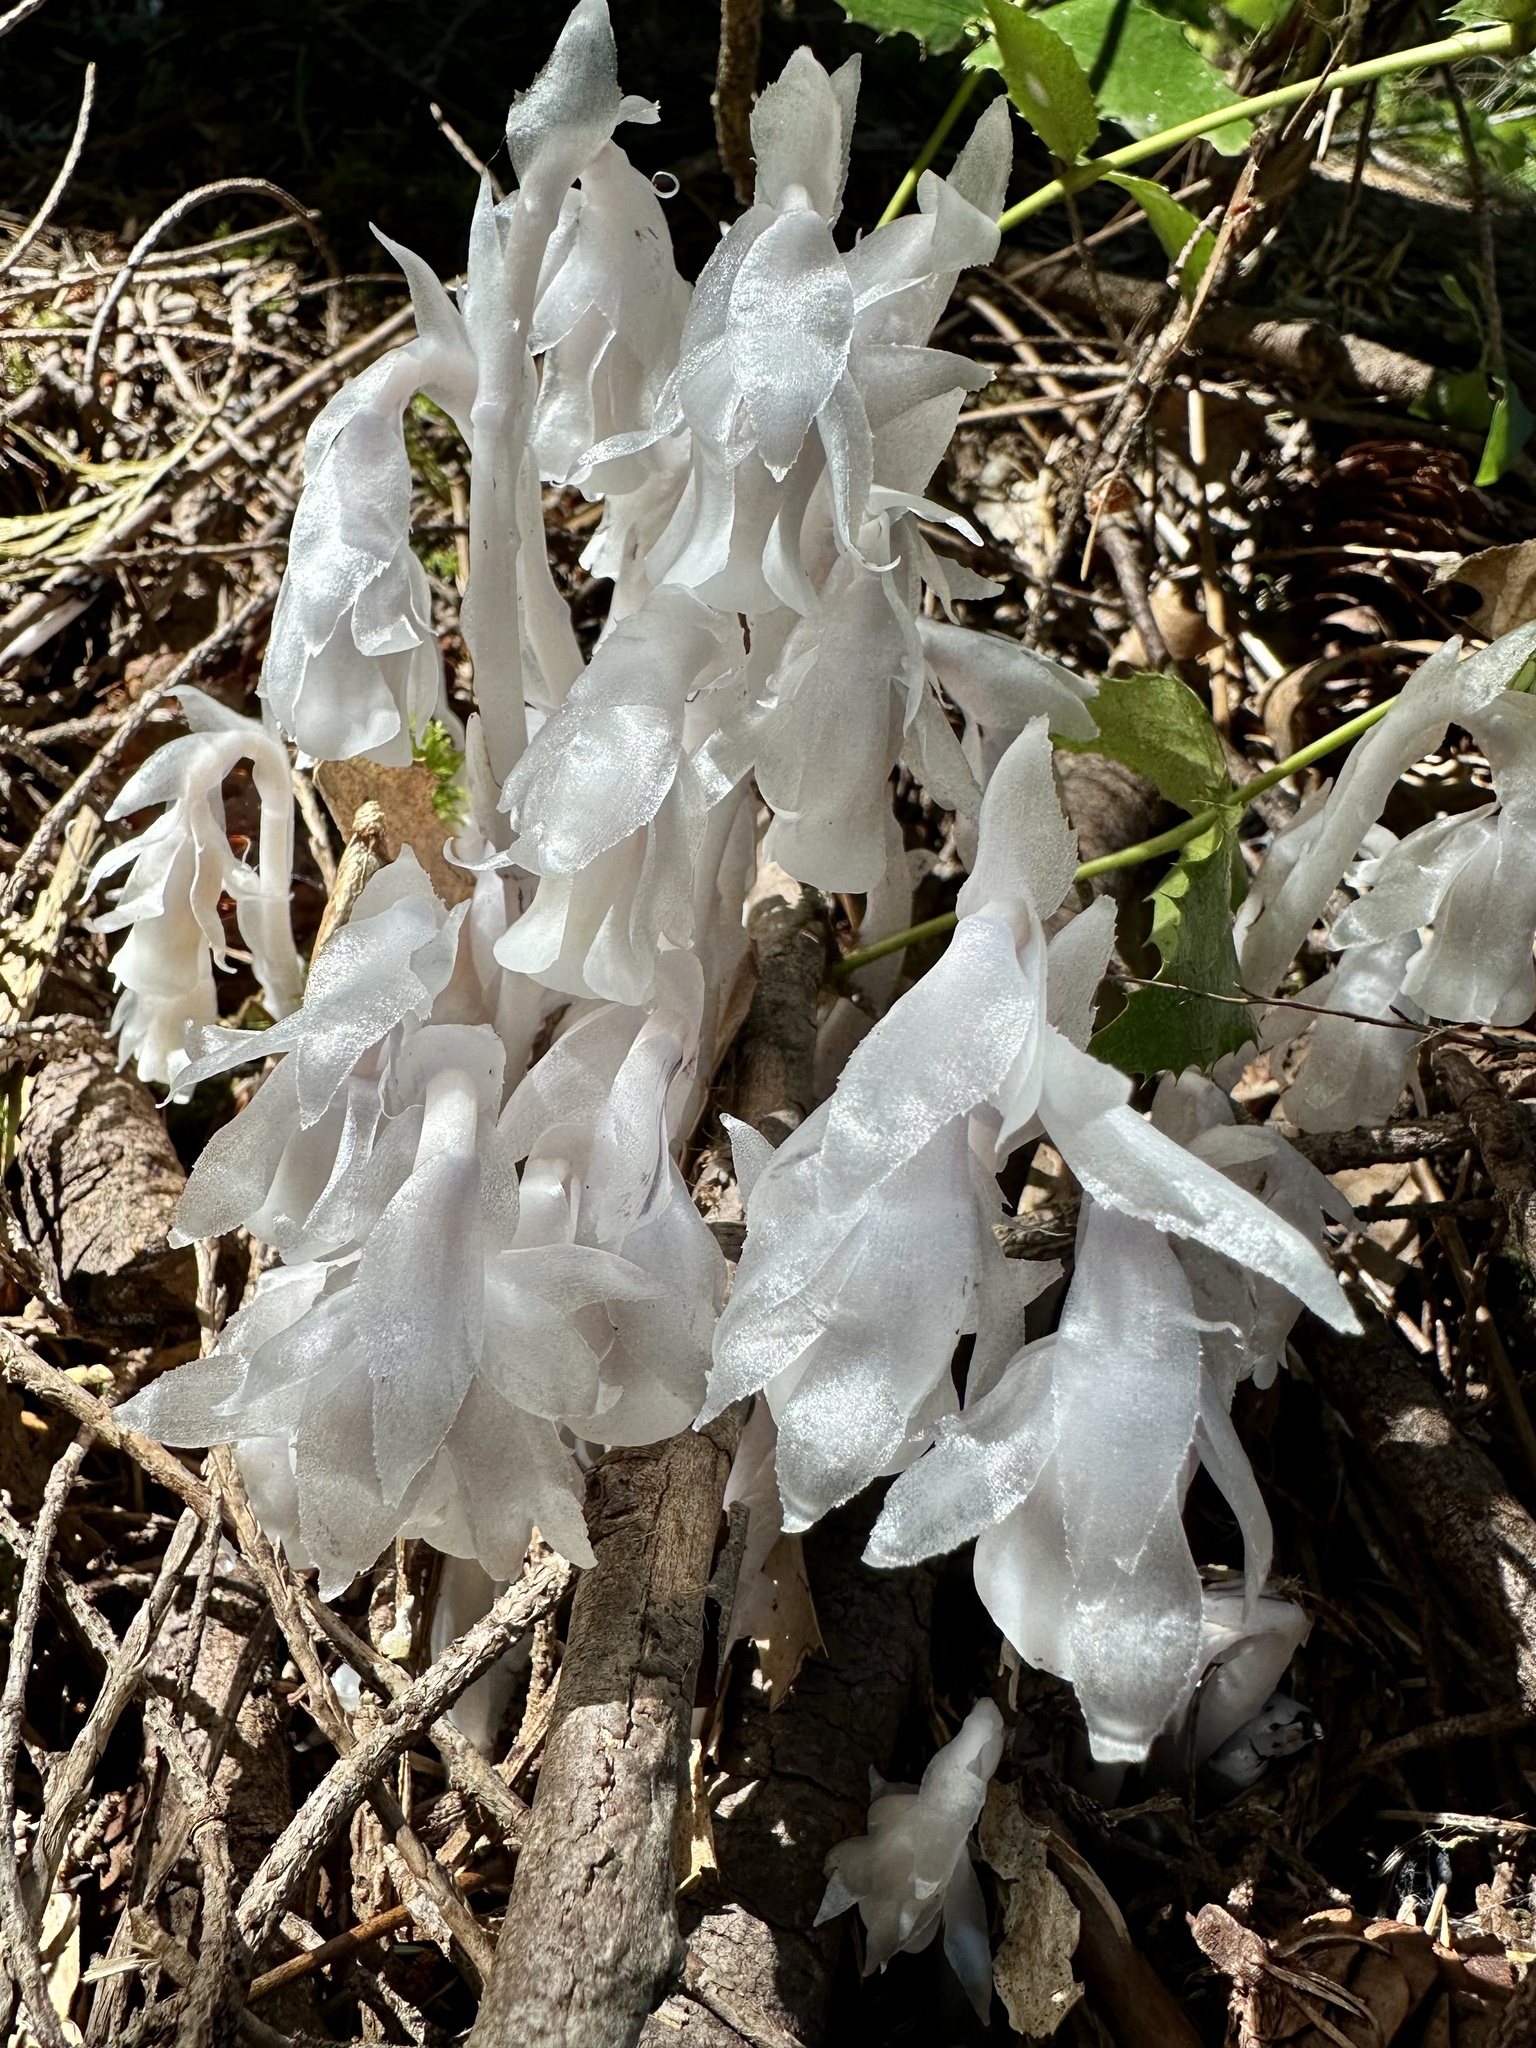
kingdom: Plantae
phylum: Tracheophyta
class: Magnoliopsida
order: Ericales
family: Ericaceae
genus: Monotropa
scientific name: Monotropa uniflora
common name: Convulsion root
